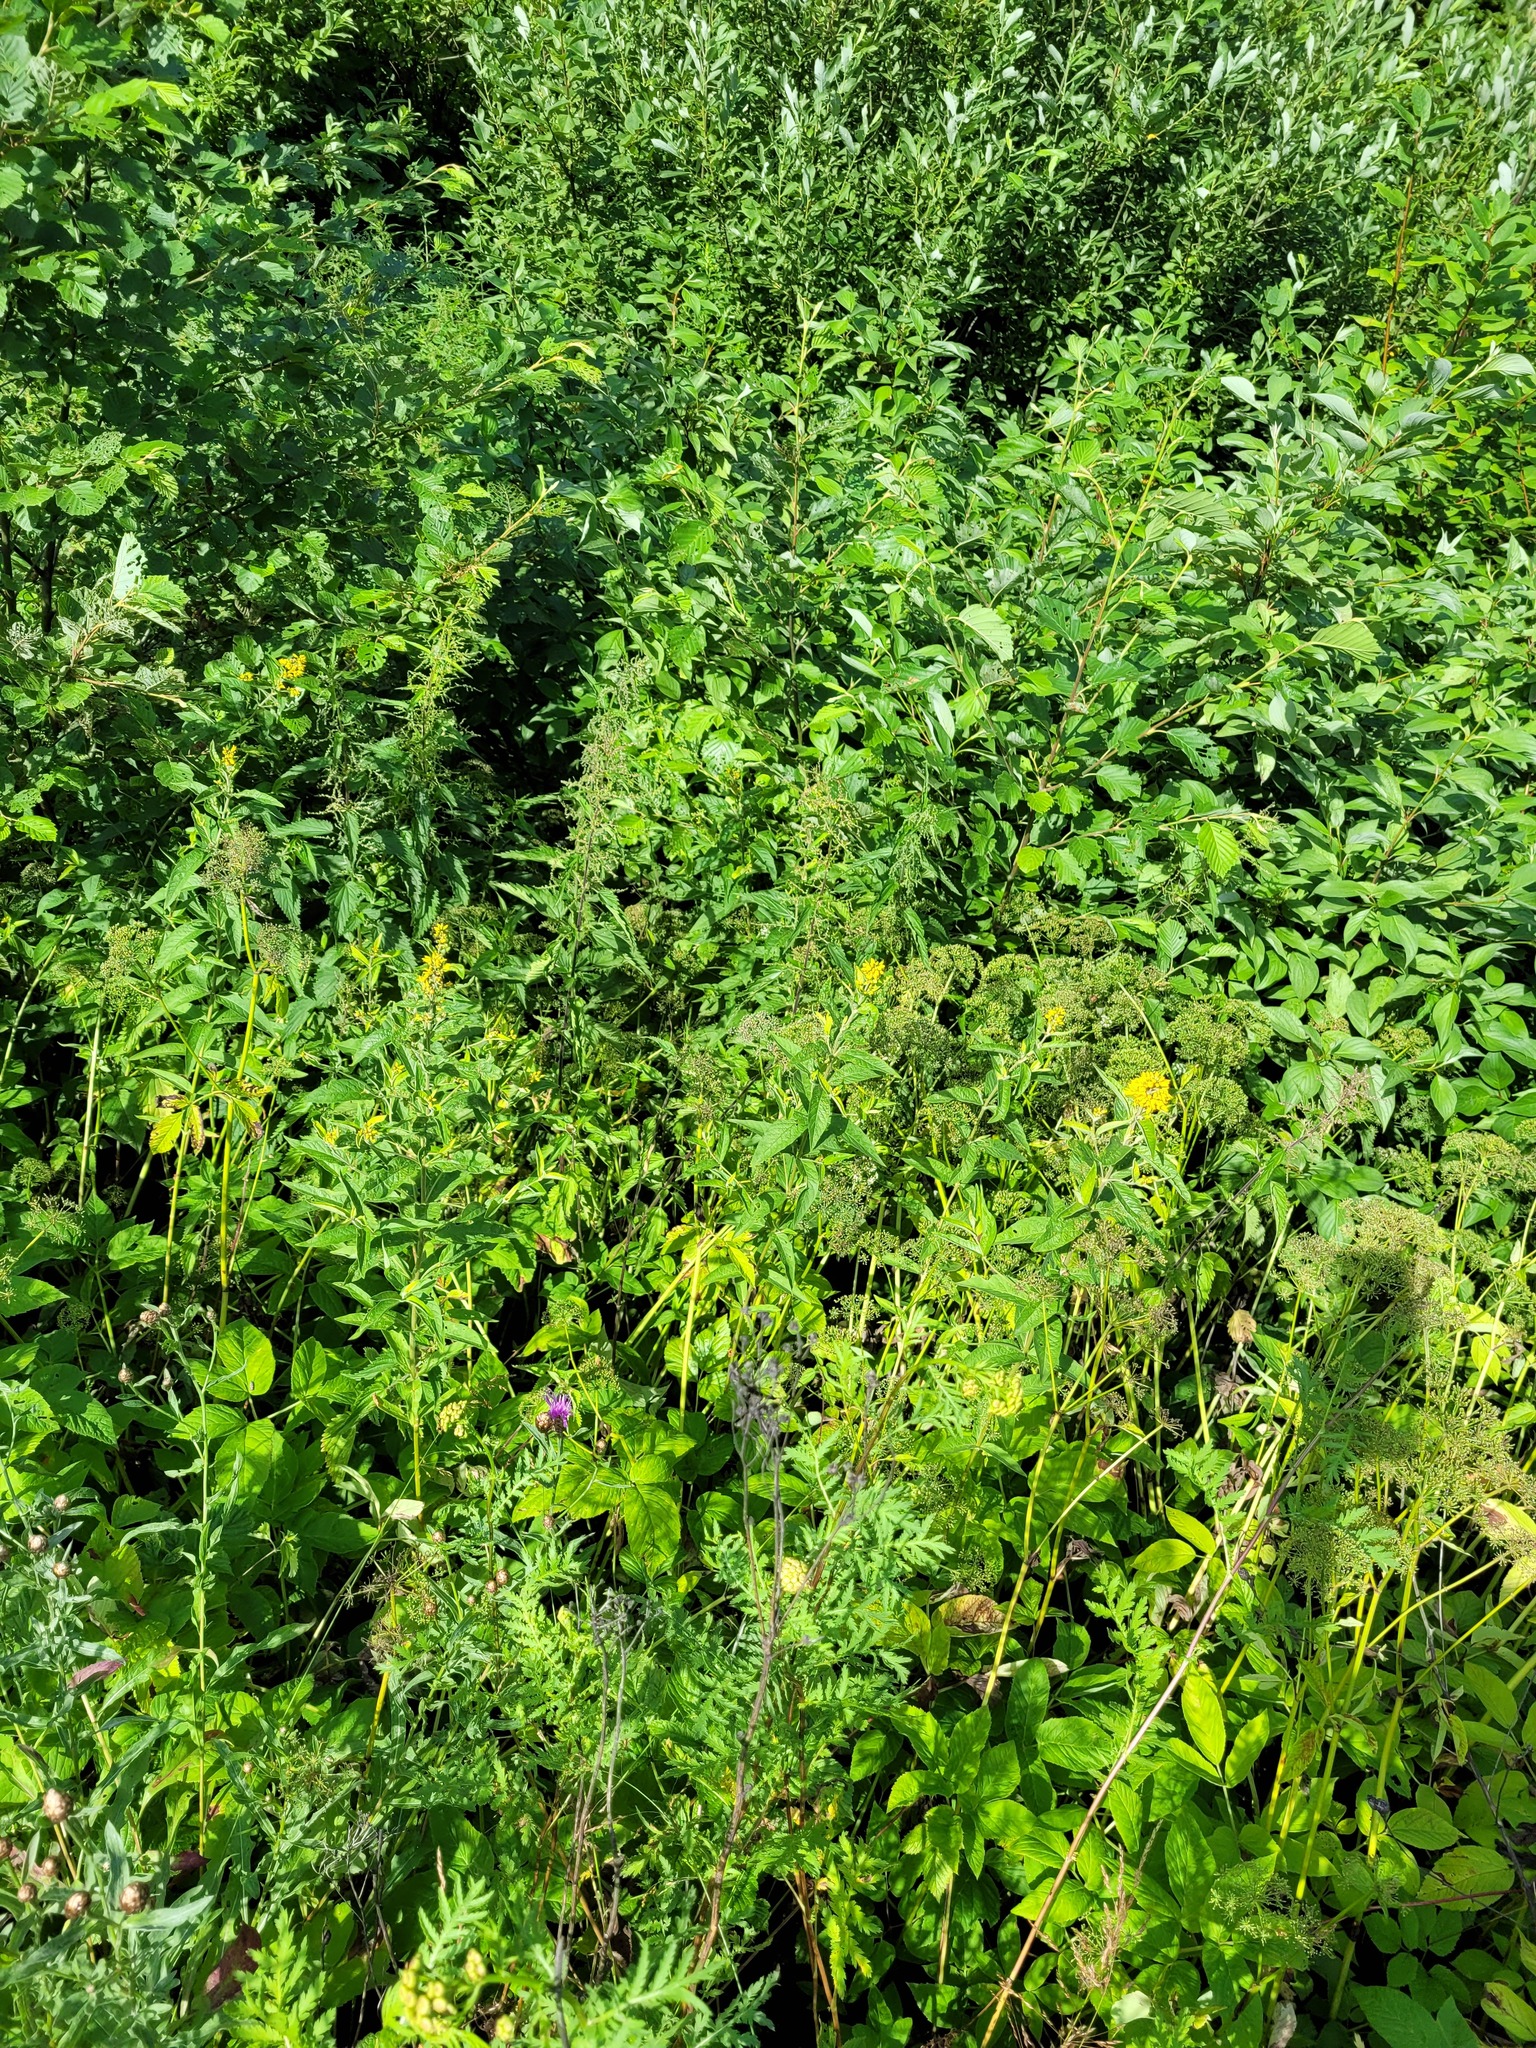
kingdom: Plantae
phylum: Tracheophyta
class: Magnoliopsida
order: Ericales
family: Primulaceae
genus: Lysimachia
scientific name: Lysimachia vulgaris
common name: Yellow loosestrife
